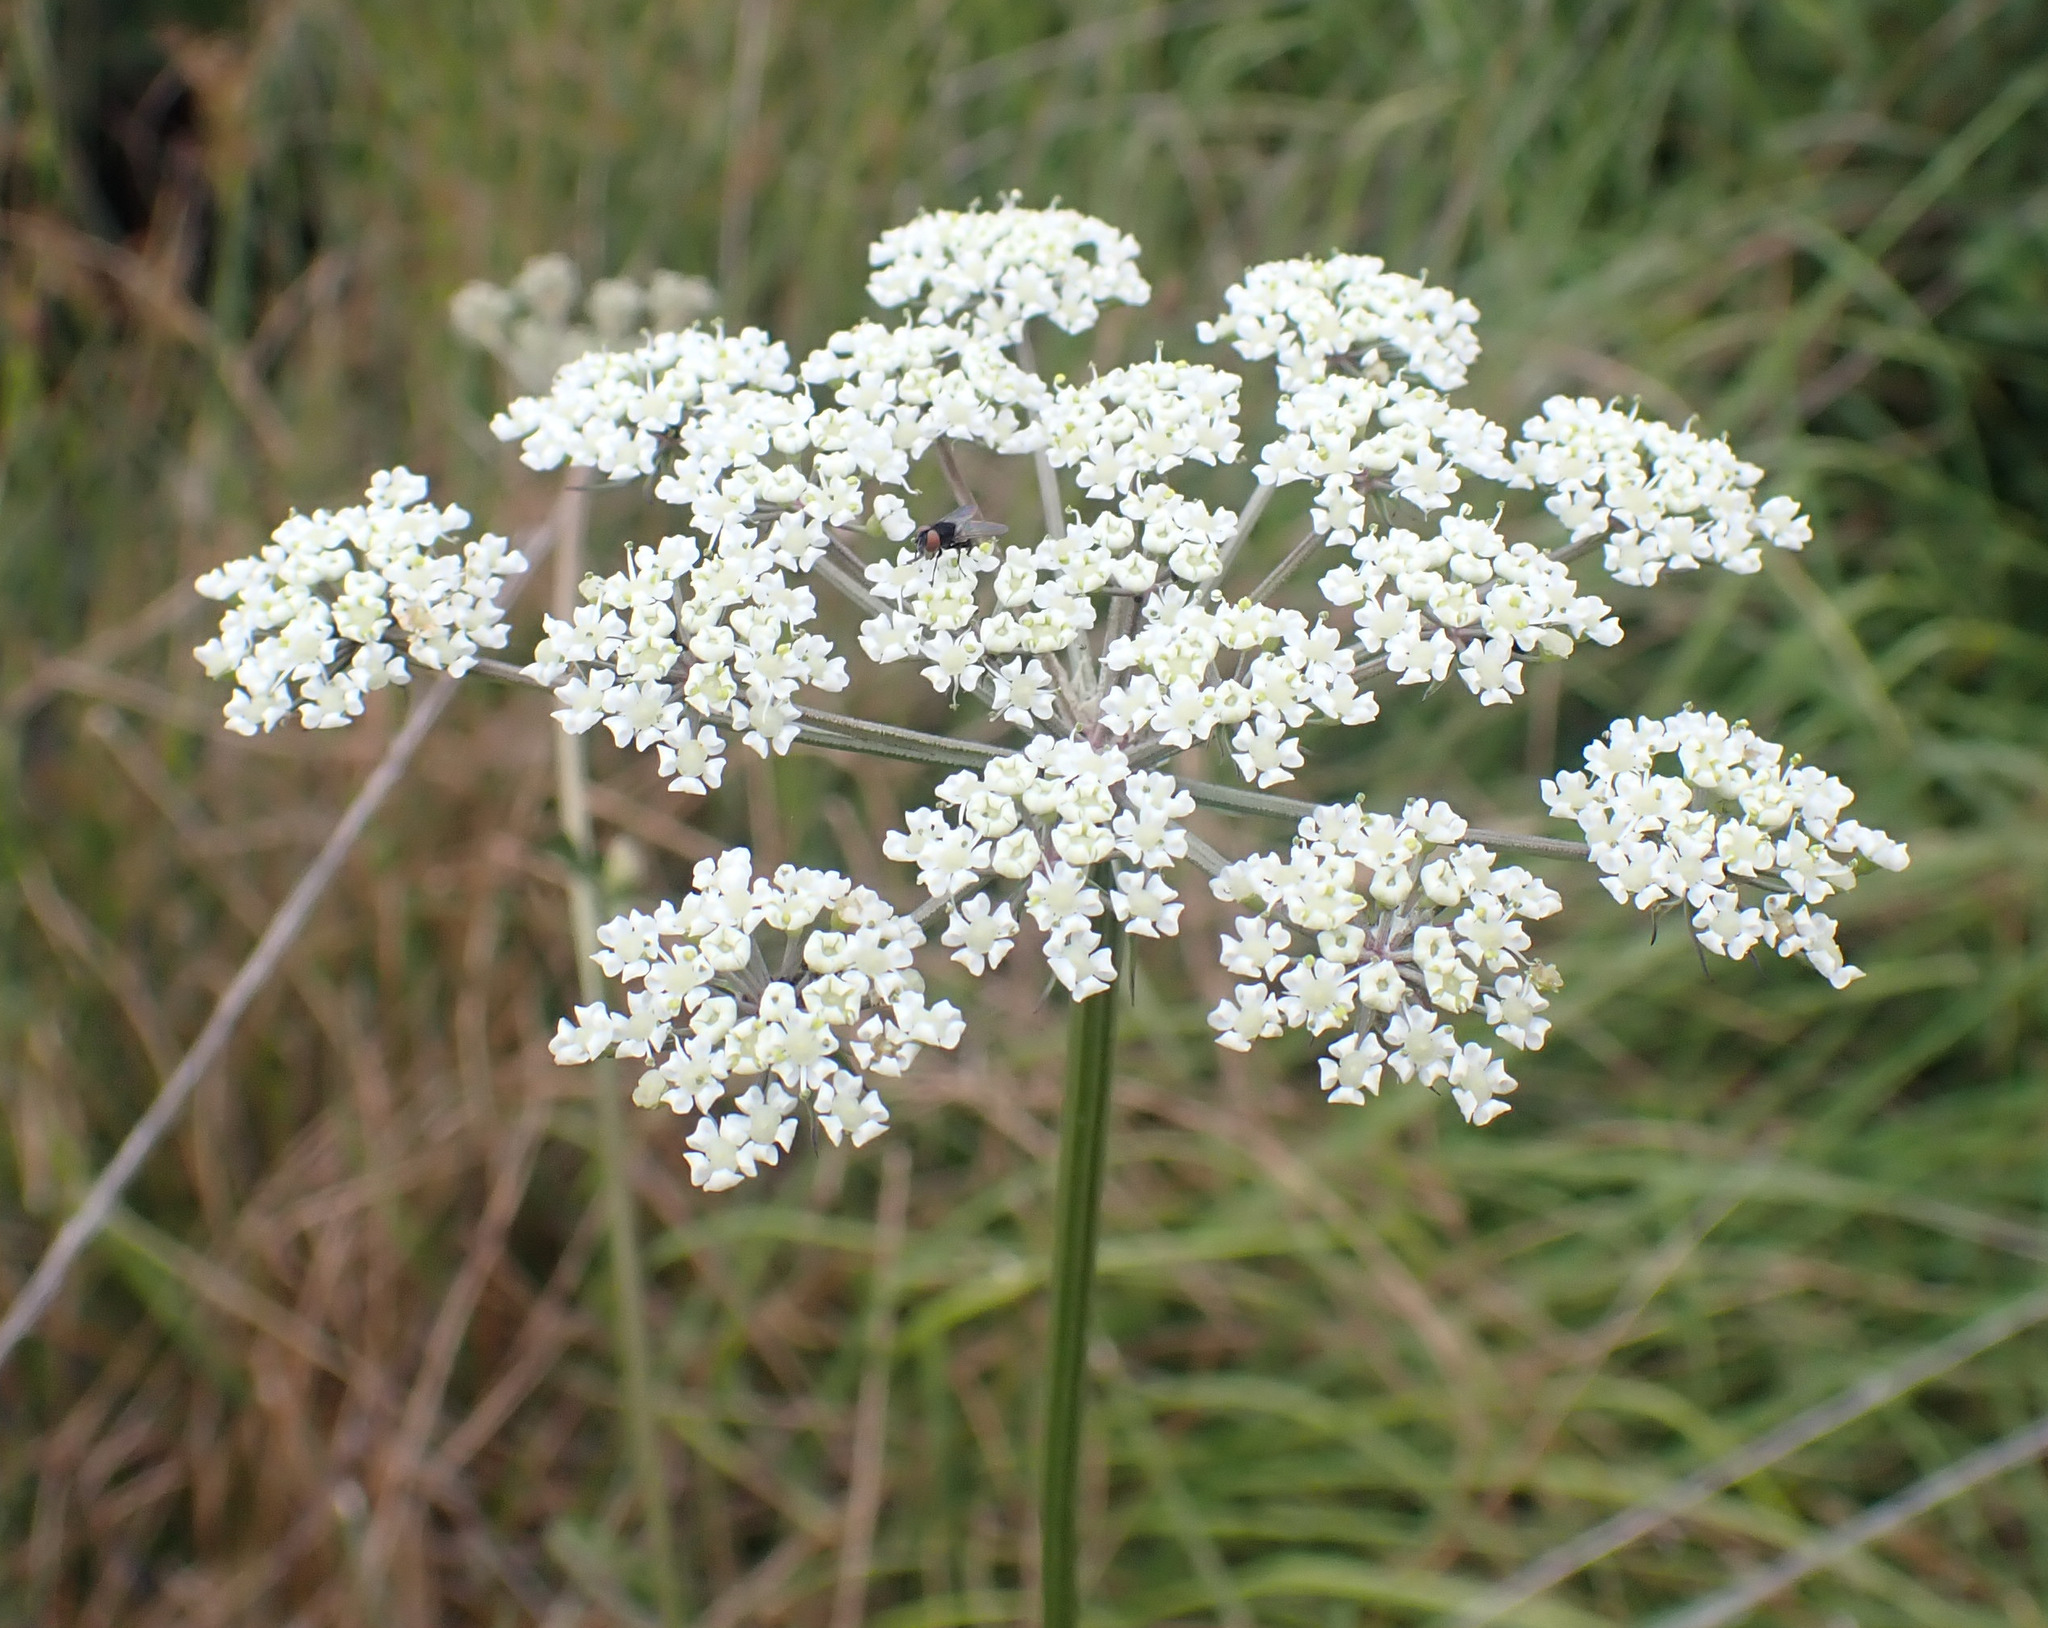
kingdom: Plantae
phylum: Tracheophyta
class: Magnoliopsida
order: Apiales
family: Apiaceae
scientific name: Apiaceae
